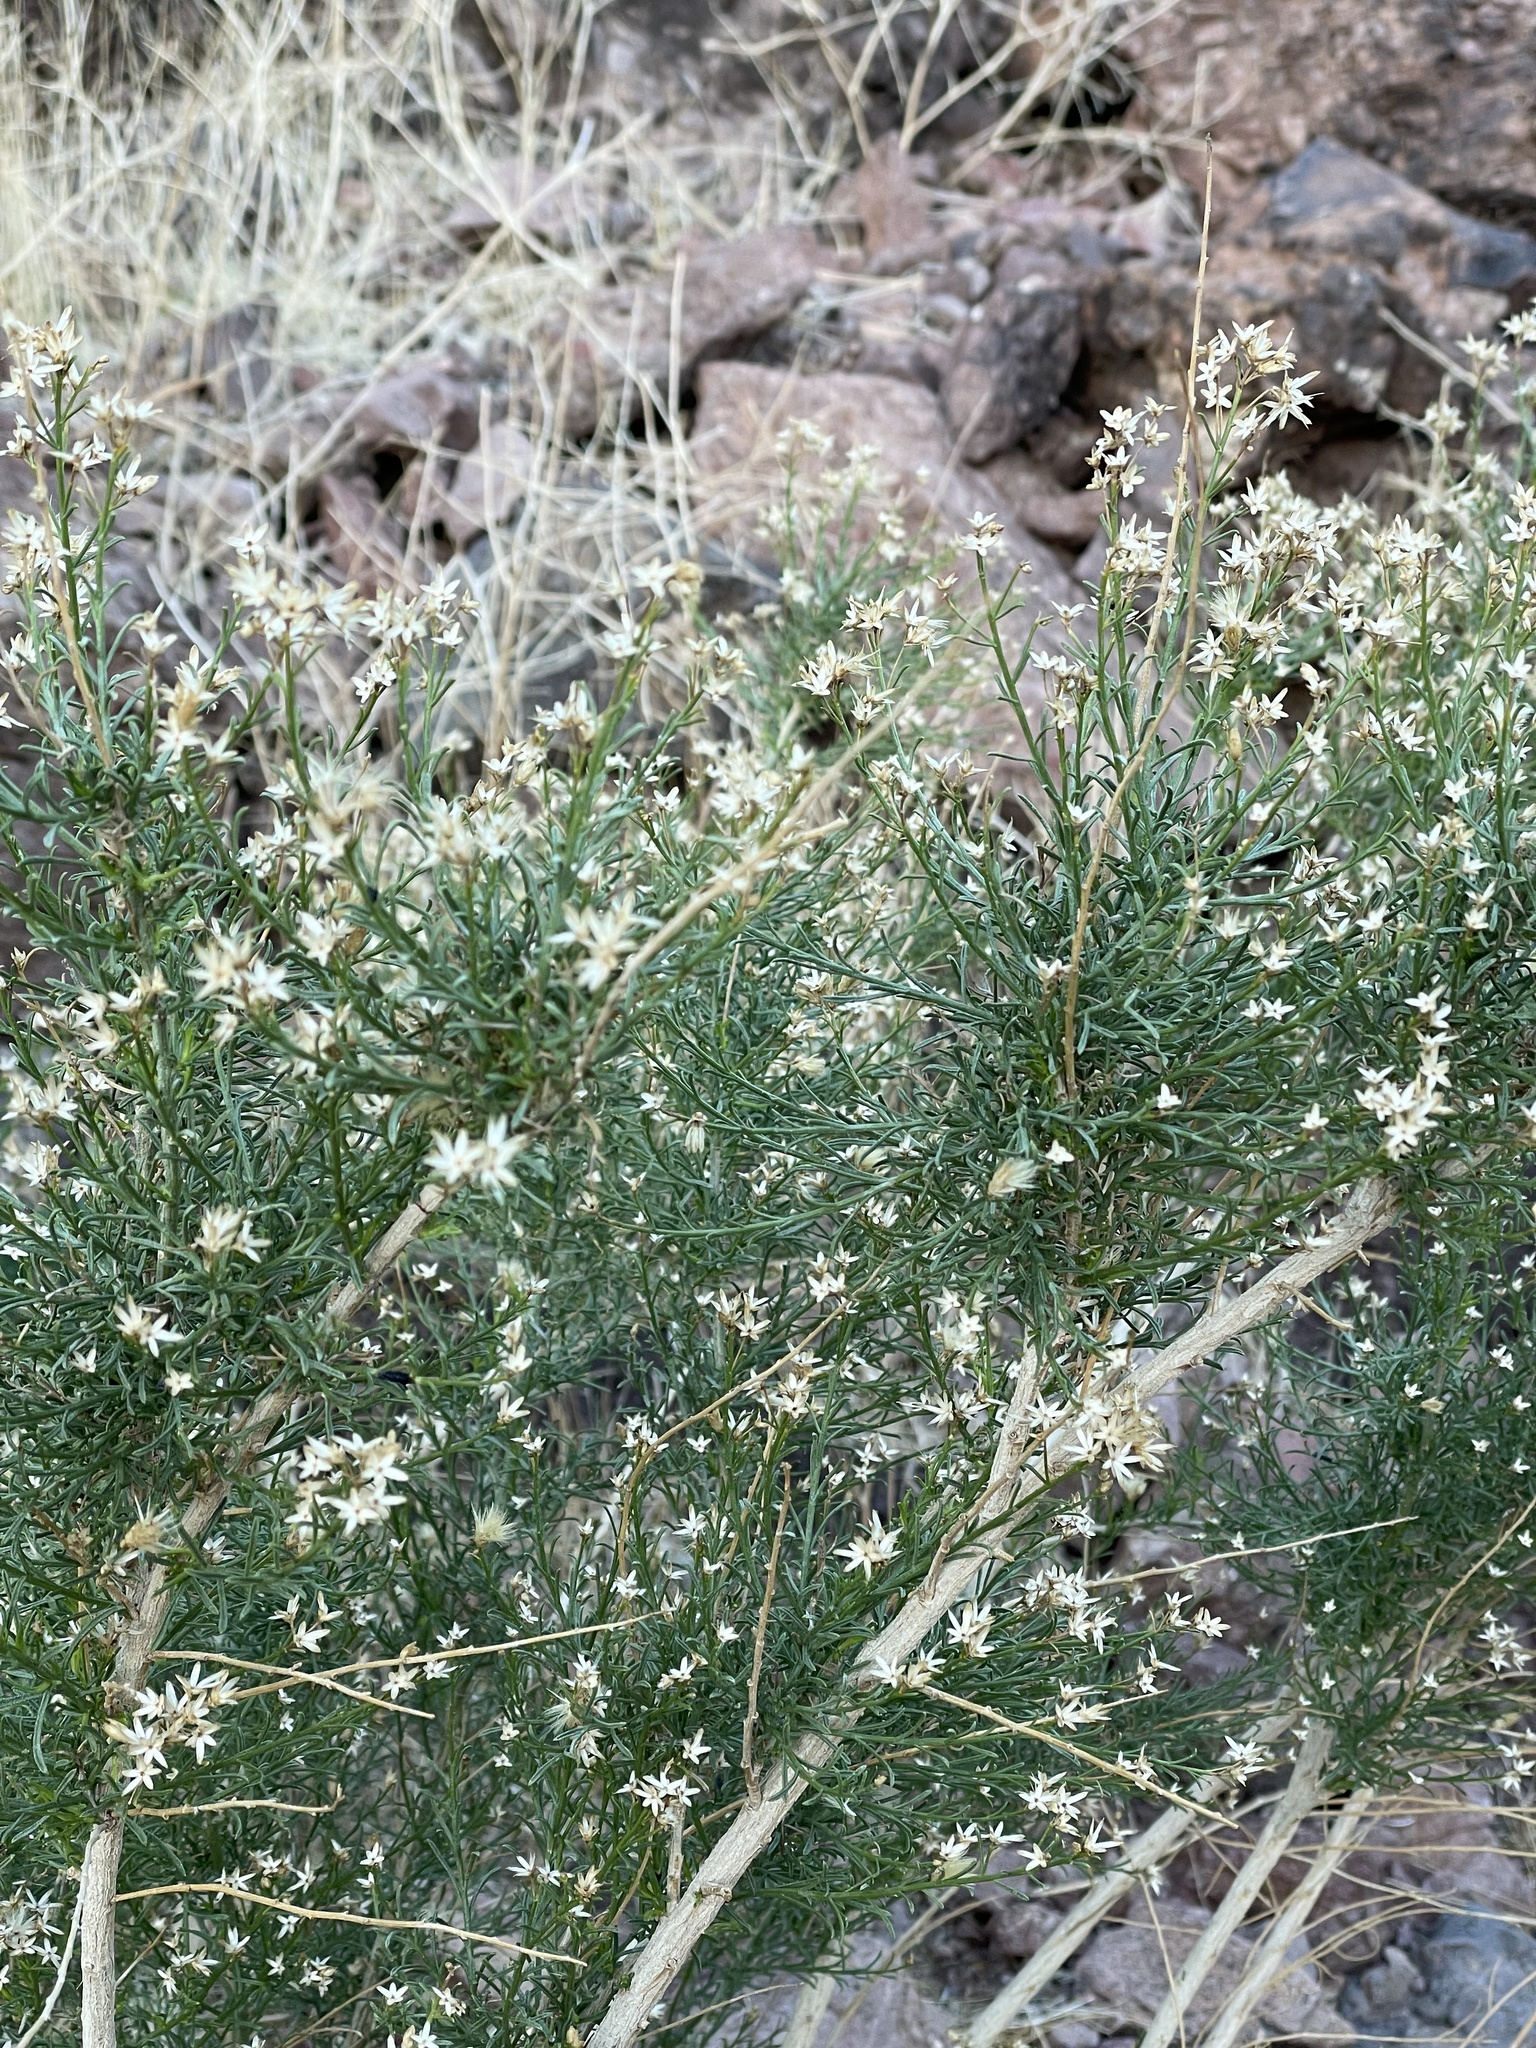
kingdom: Plantae
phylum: Tracheophyta
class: Magnoliopsida
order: Asterales
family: Asteraceae
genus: Baccharis
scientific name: Baccharis sarothroides
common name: Desert-broom
